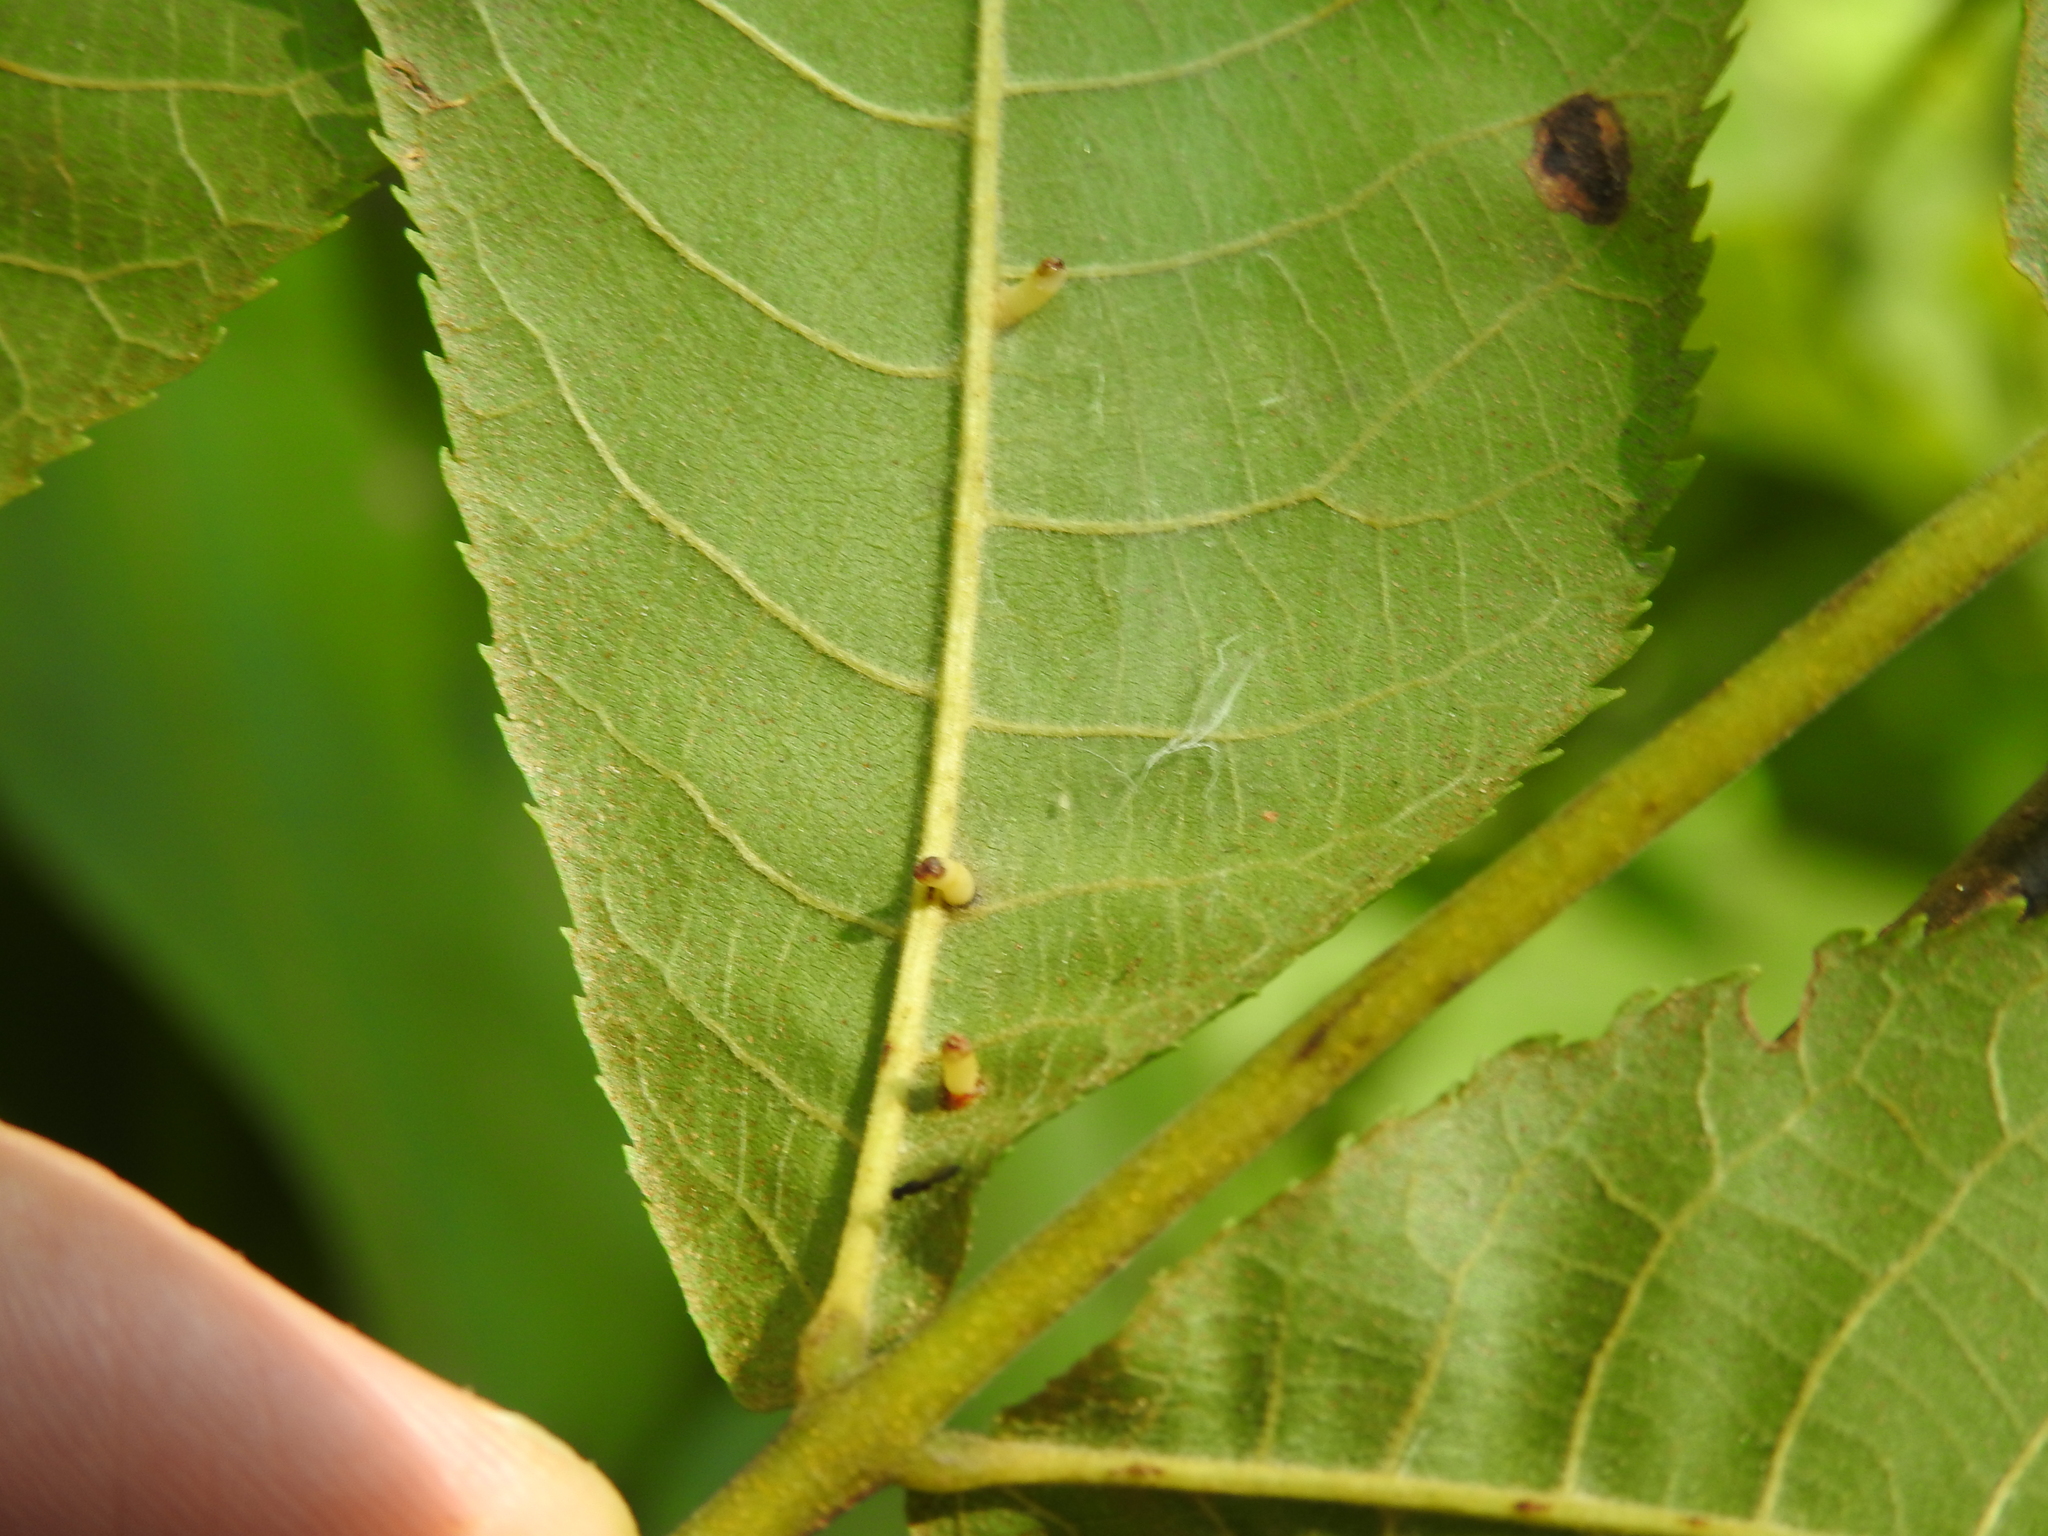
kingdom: Animalia
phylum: Arthropoda
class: Insecta
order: Diptera
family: Cecidomyiidae
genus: Caryomyia
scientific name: Caryomyia tubicola
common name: Hickory bullet gall midge
